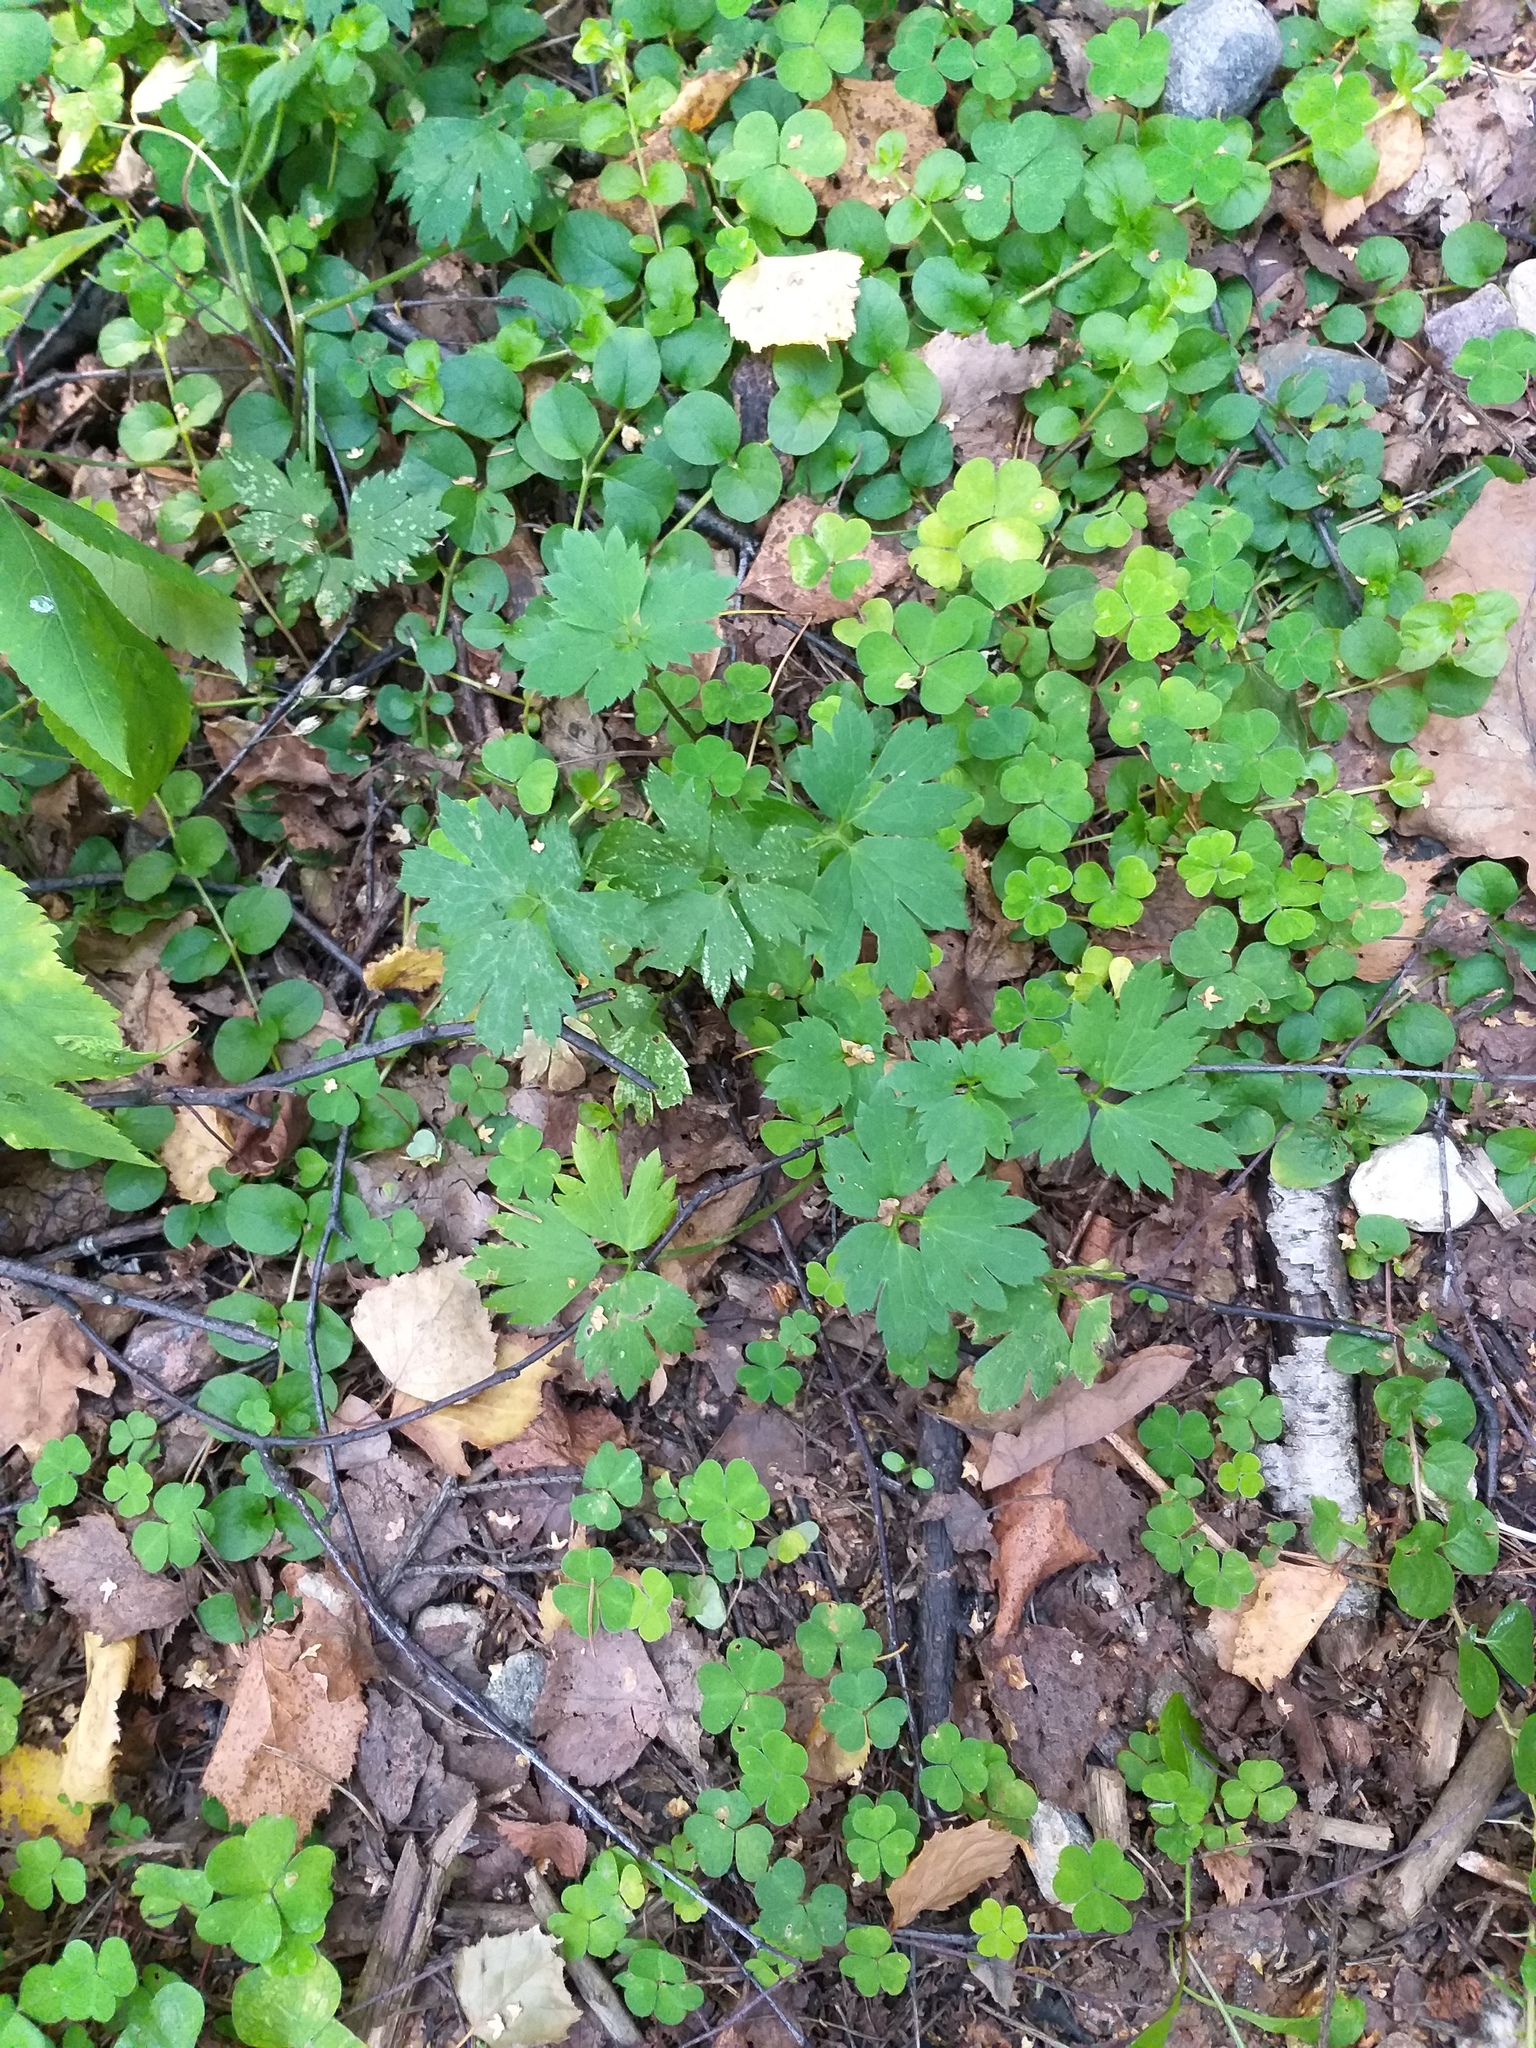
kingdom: Plantae
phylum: Tracheophyta
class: Magnoliopsida
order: Ranunculales
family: Ranunculaceae
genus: Ranunculus
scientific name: Ranunculus repens
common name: Creeping buttercup
